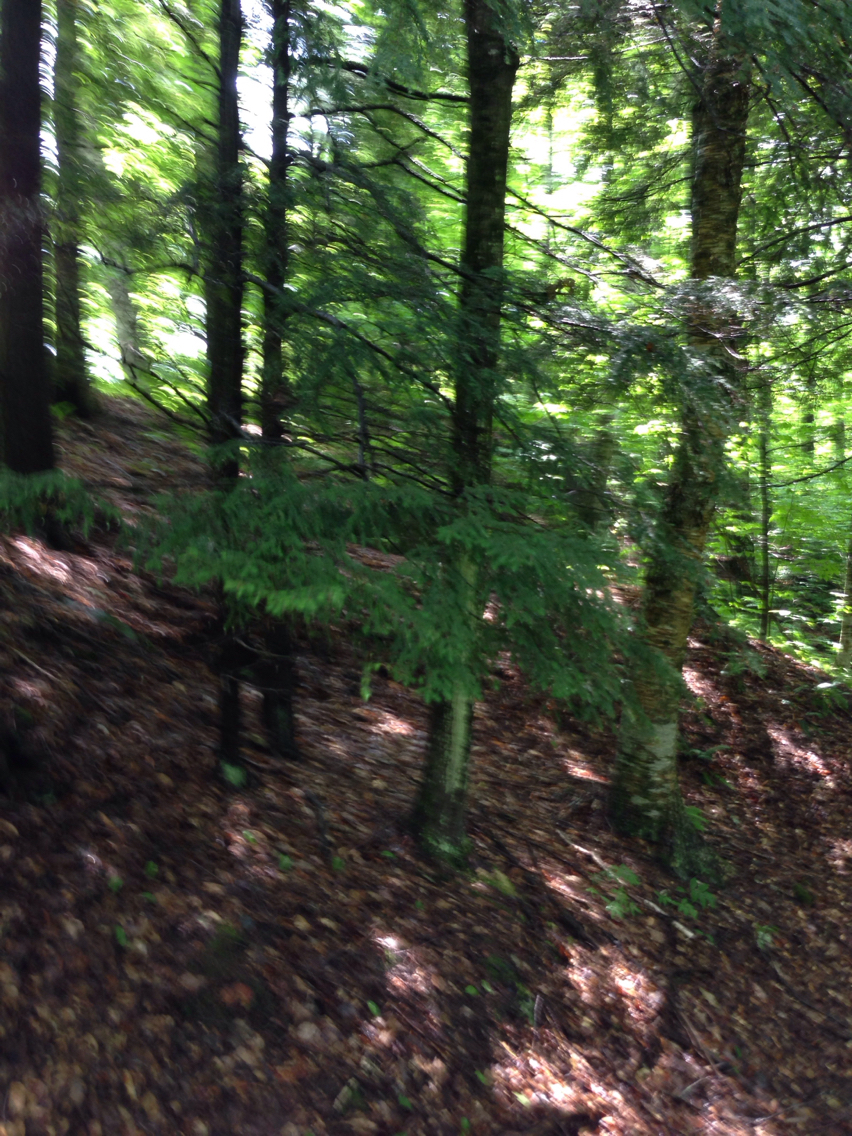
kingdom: Plantae
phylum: Tracheophyta
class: Pinopsida
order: Pinales
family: Pinaceae
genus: Tsuga
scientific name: Tsuga canadensis
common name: Eastern hemlock
